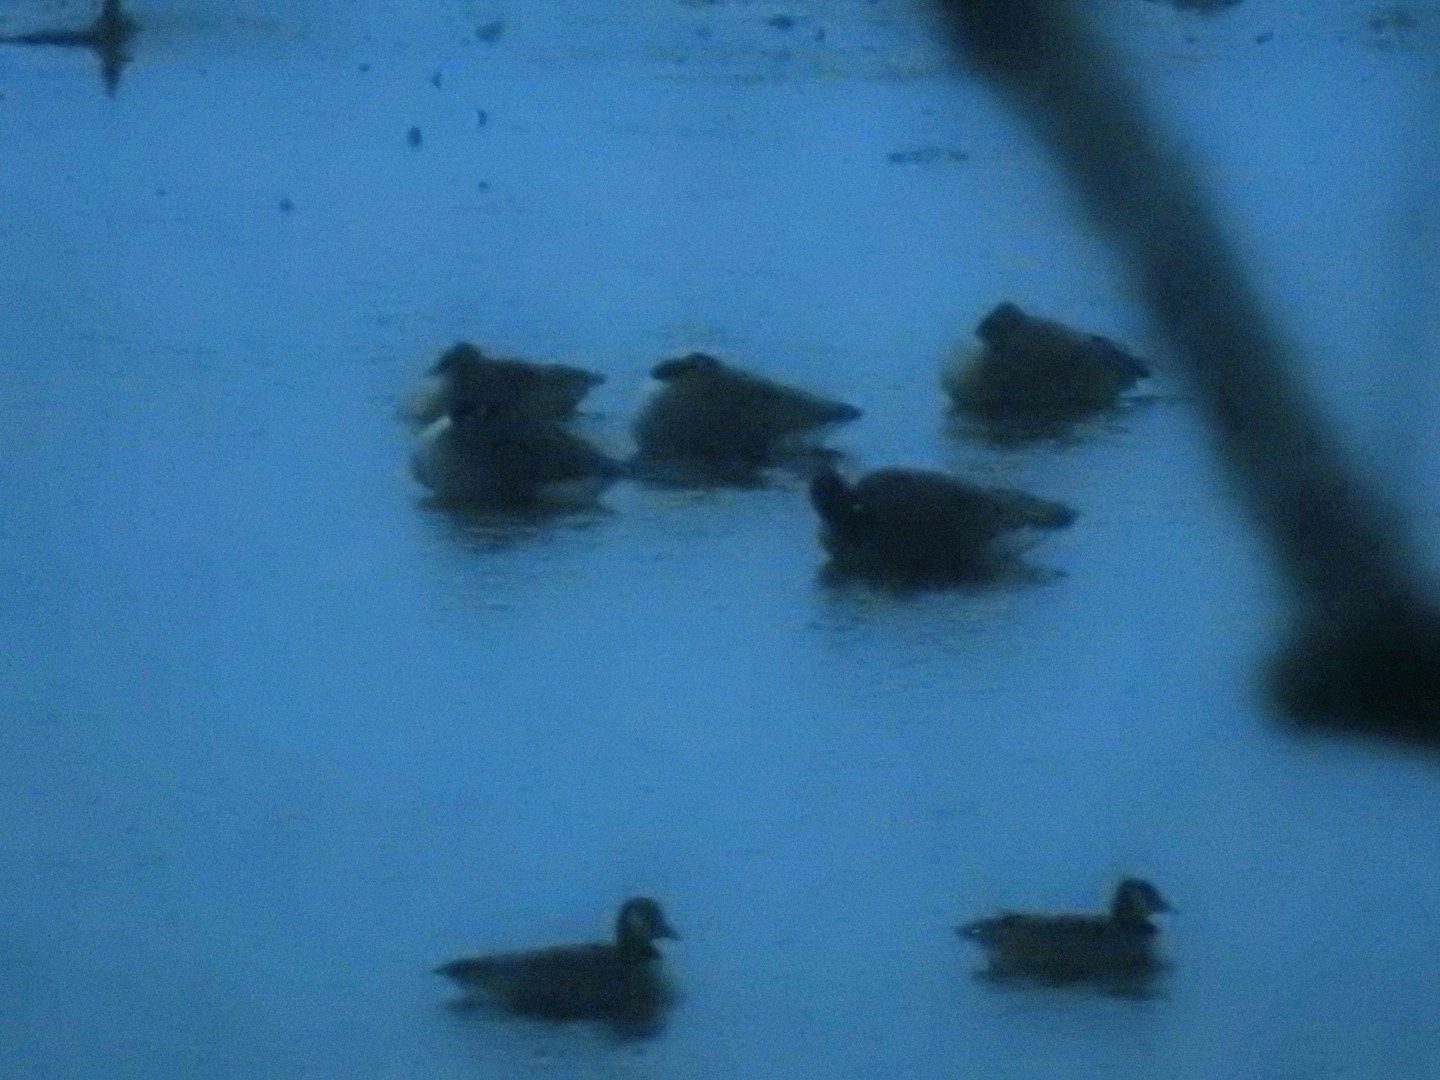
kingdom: Animalia
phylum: Chordata
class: Aves
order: Anseriformes
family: Anatidae
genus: Branta
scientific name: Branta hutchinsii
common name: Cackling goose
